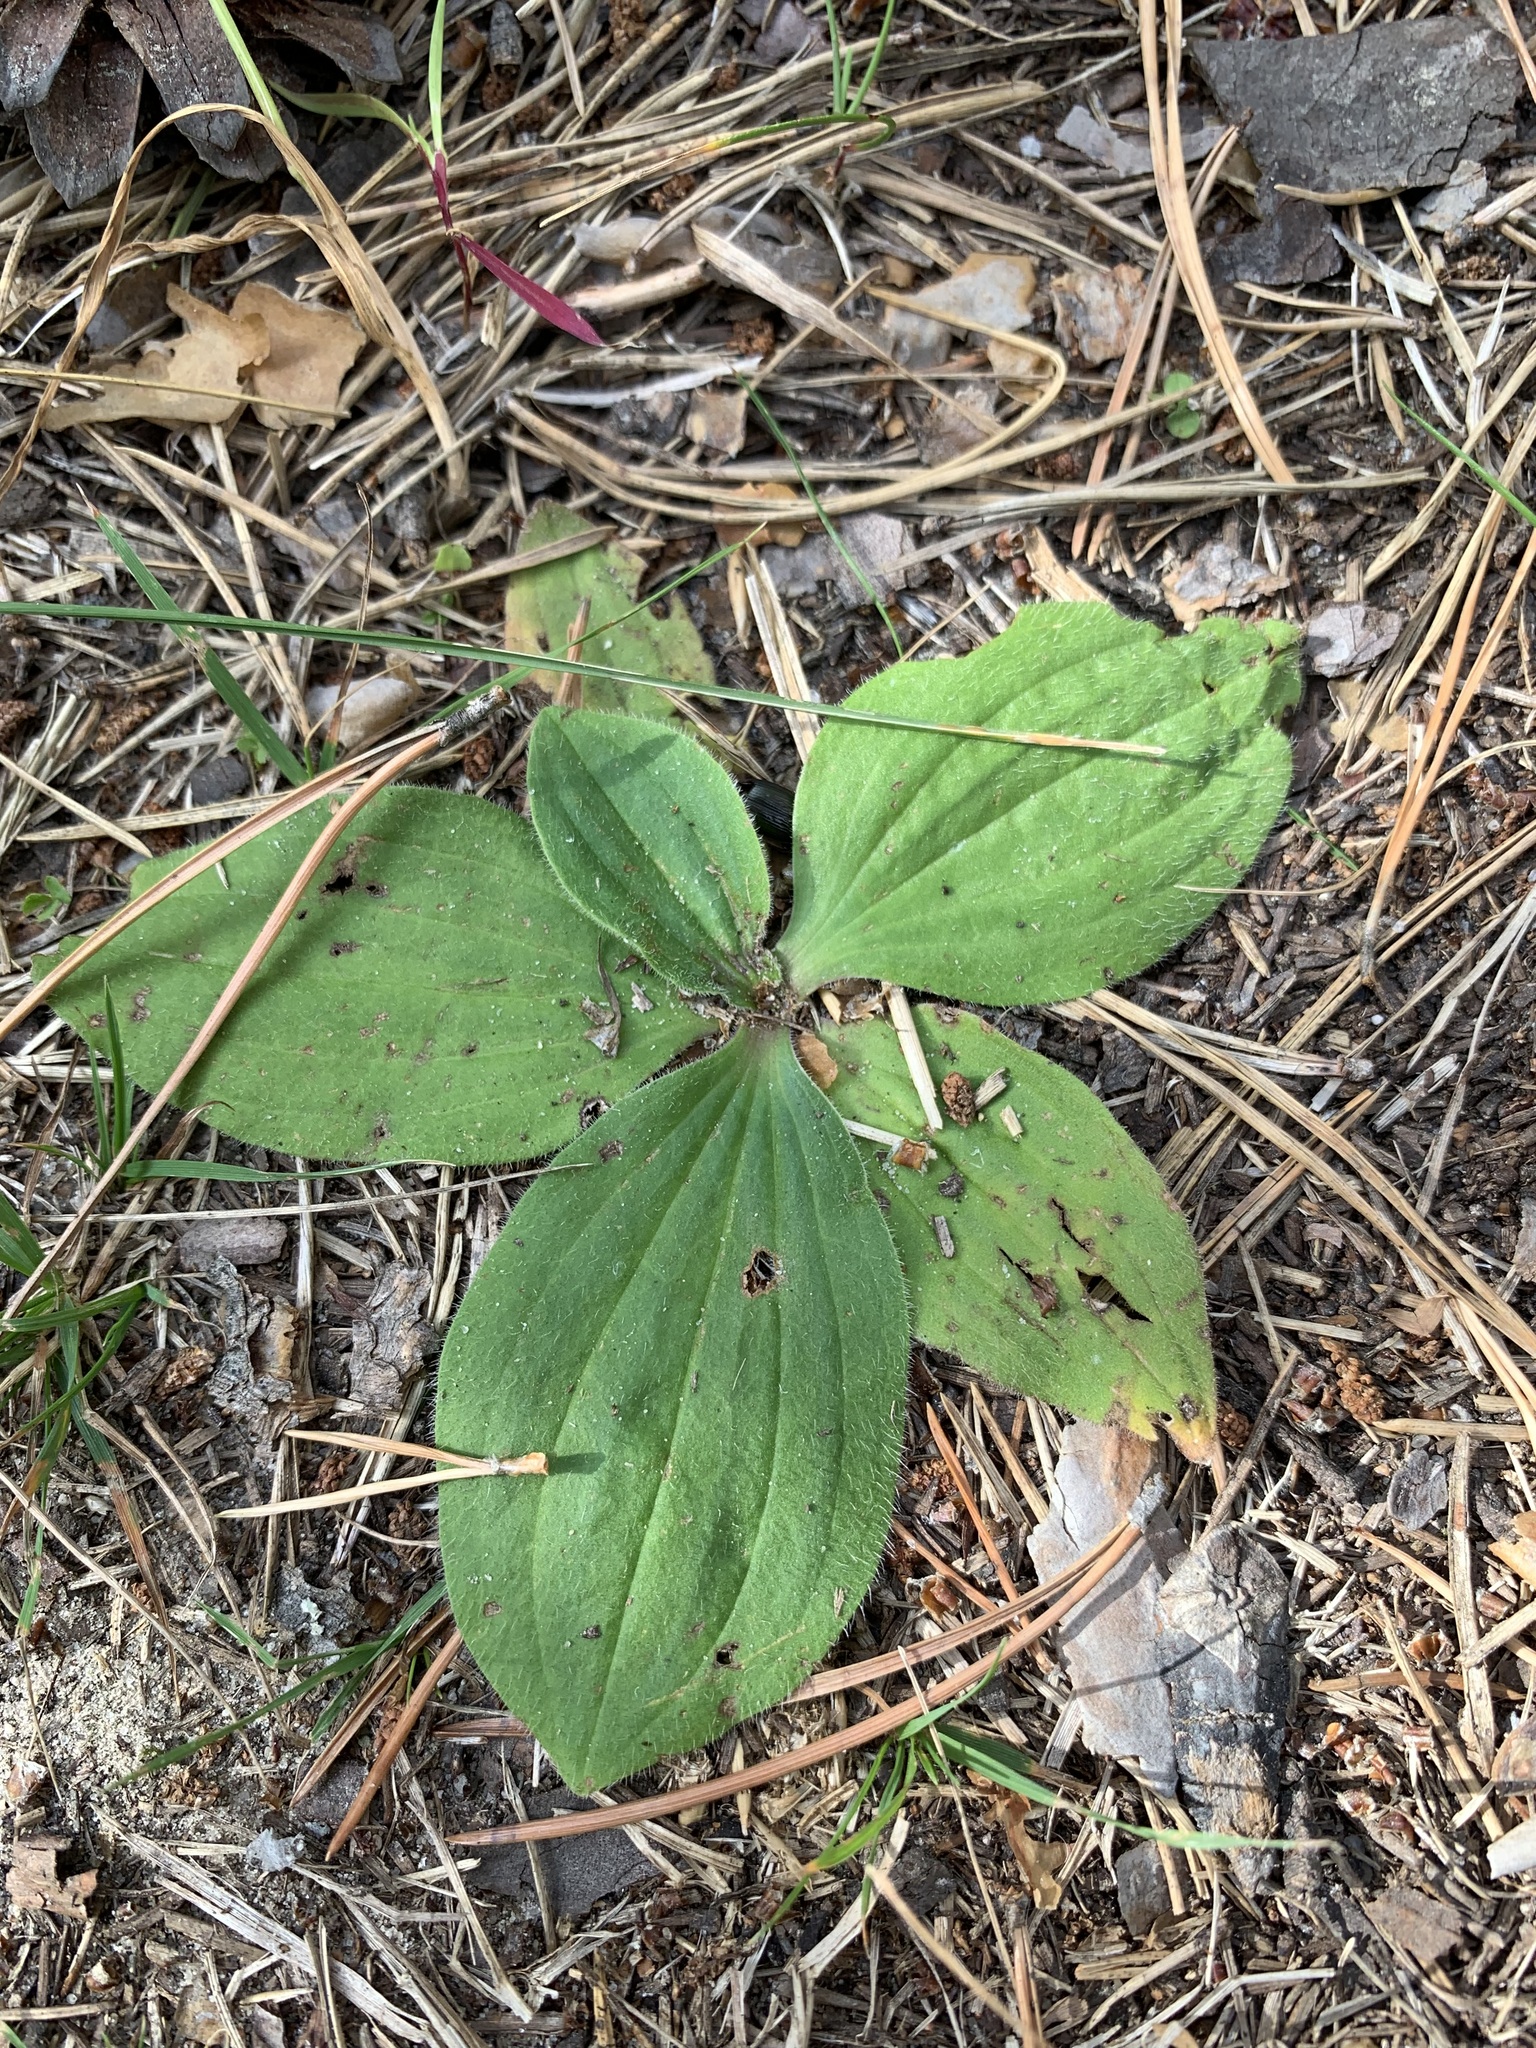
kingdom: Plantae
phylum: Tracheophyta
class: Magnoliopsida
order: Lamiales
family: Plantaginaceae
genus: Plantago
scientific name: Plantago media
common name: Hoary plantain
